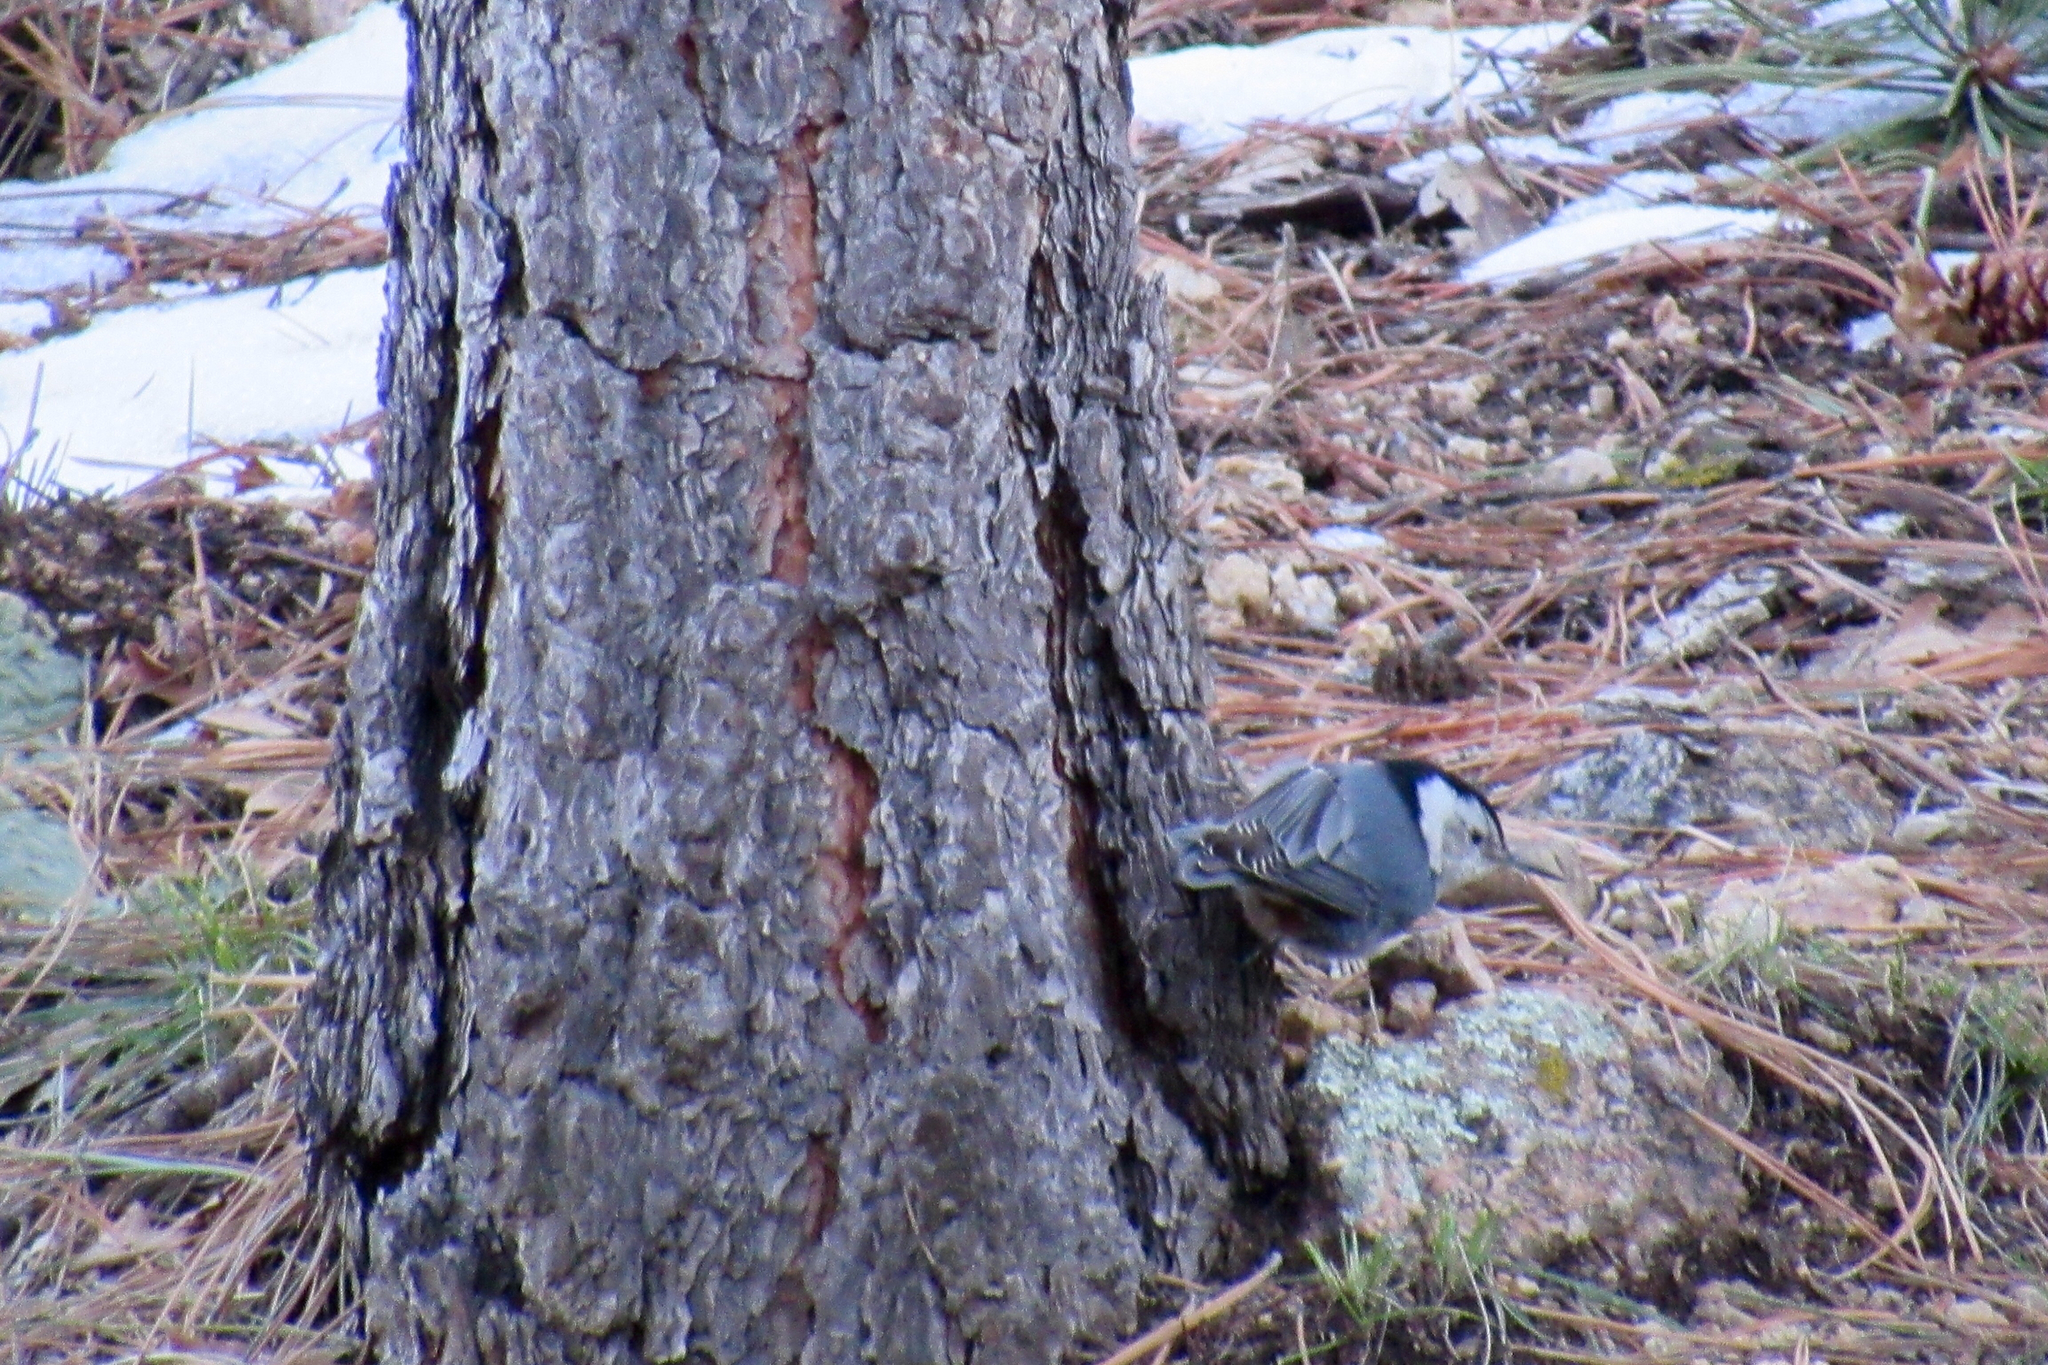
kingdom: Animalia
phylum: Chordata
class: Aves
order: Passeriformes
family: Sittidae
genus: Sitta
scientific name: Sitta carolinensis
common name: White-breasted nuthatch
